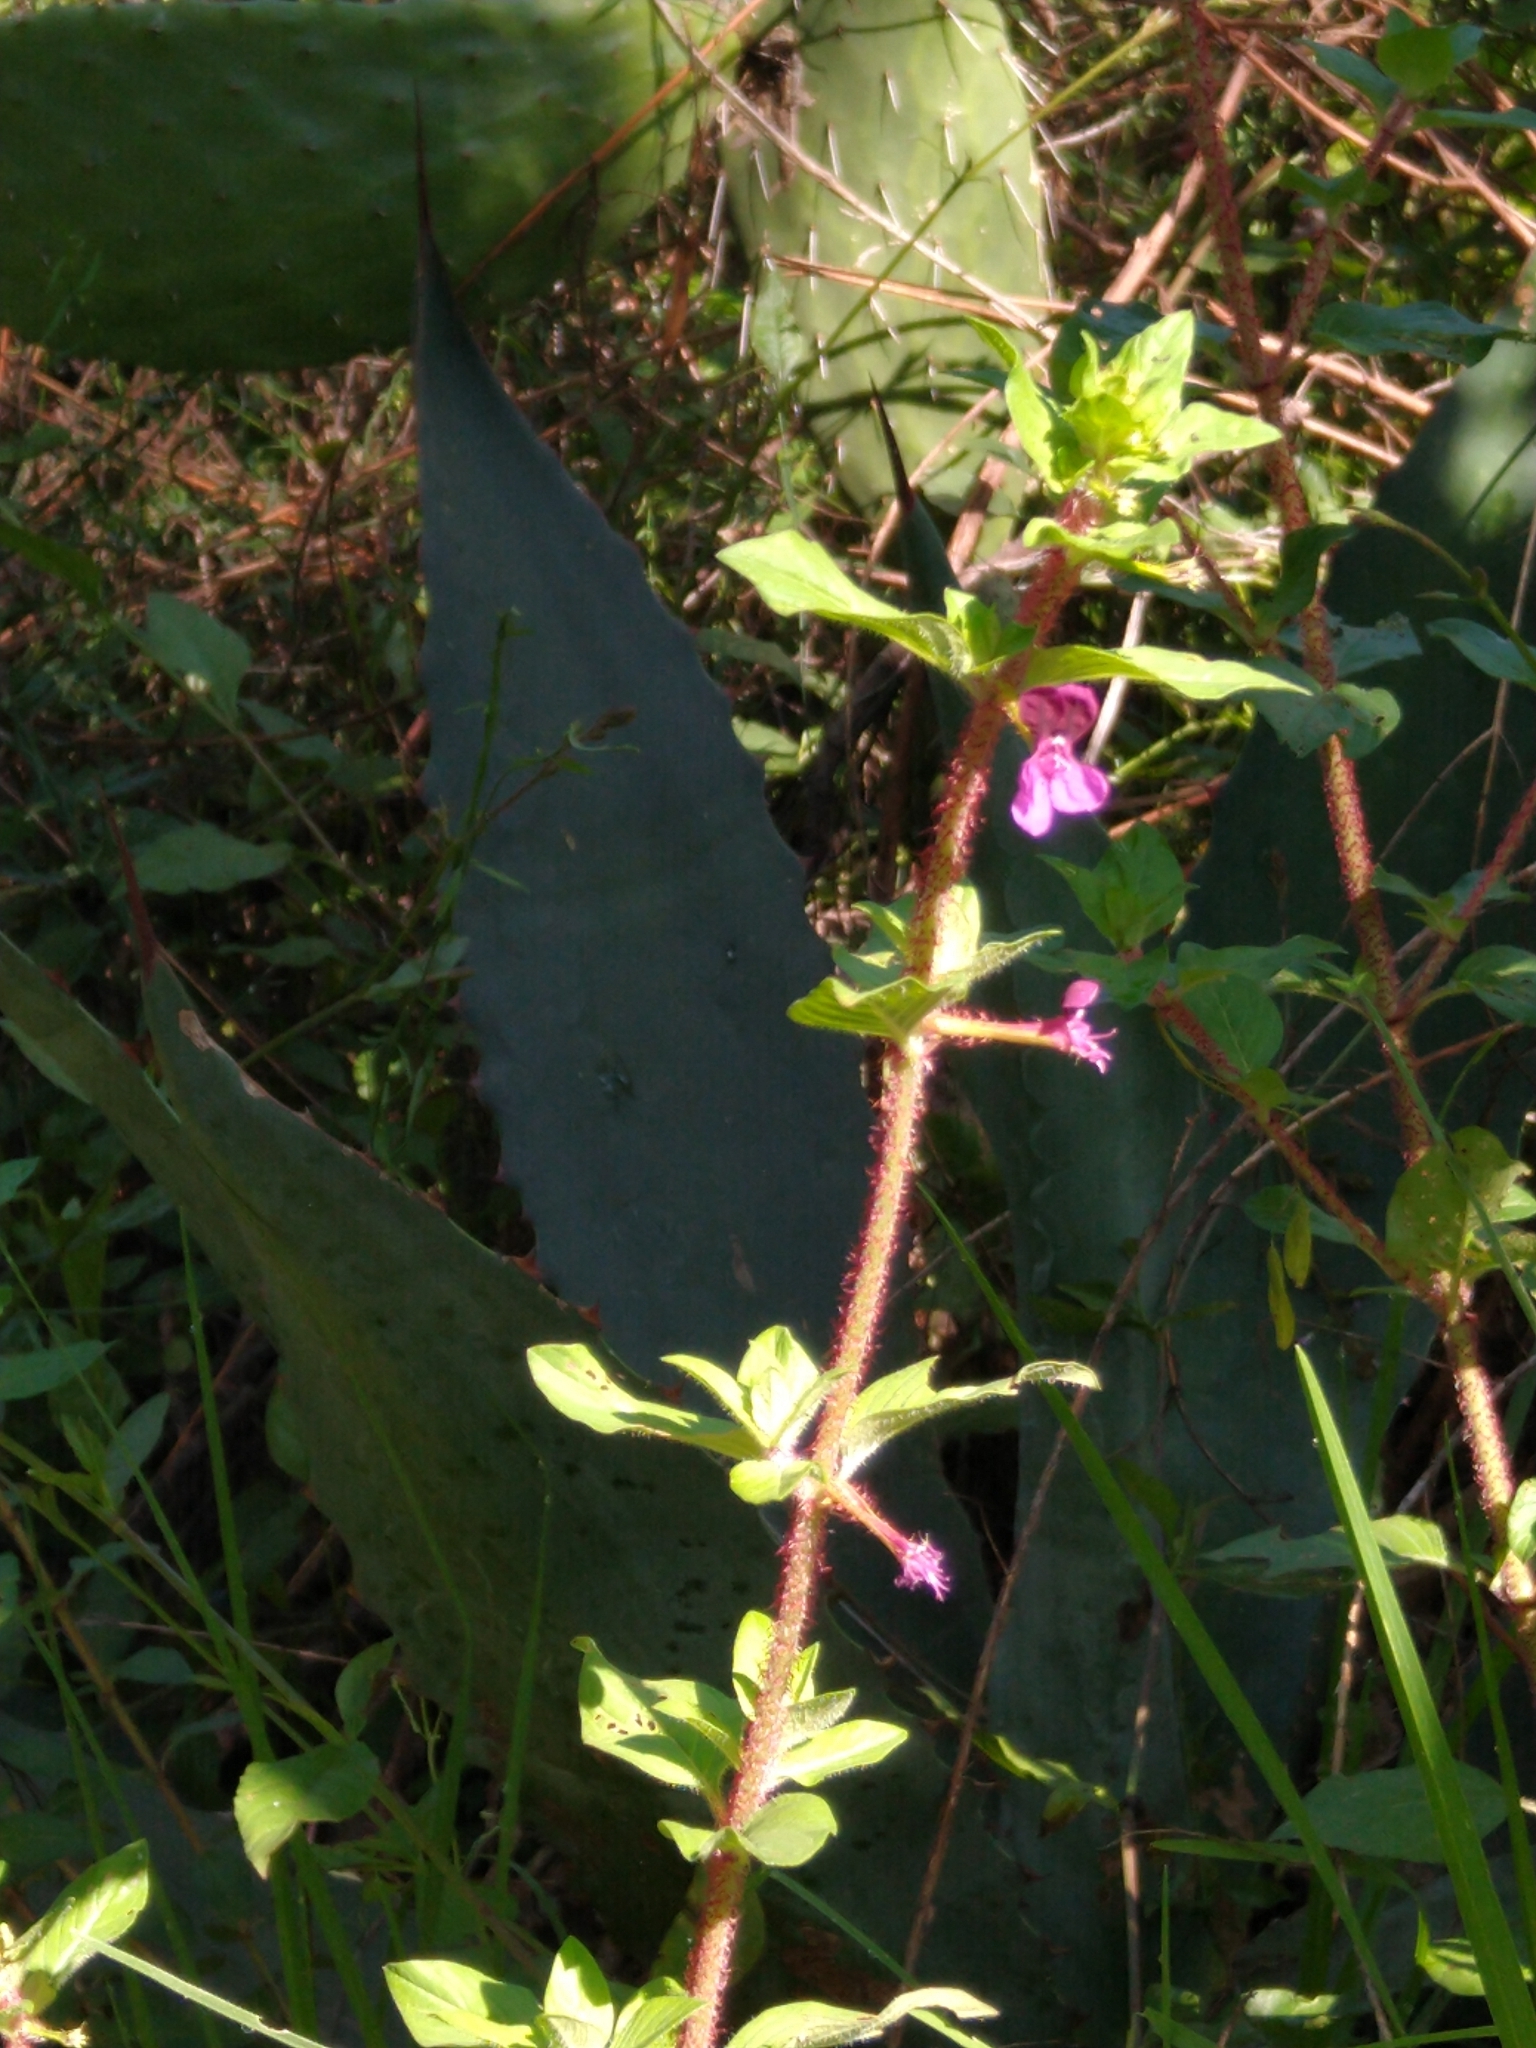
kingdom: Plantae
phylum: Tracheophyta
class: Magnoliopsida
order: Myrtales
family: Lythraceae
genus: Cuphea
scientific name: Cuphea aequipetala
